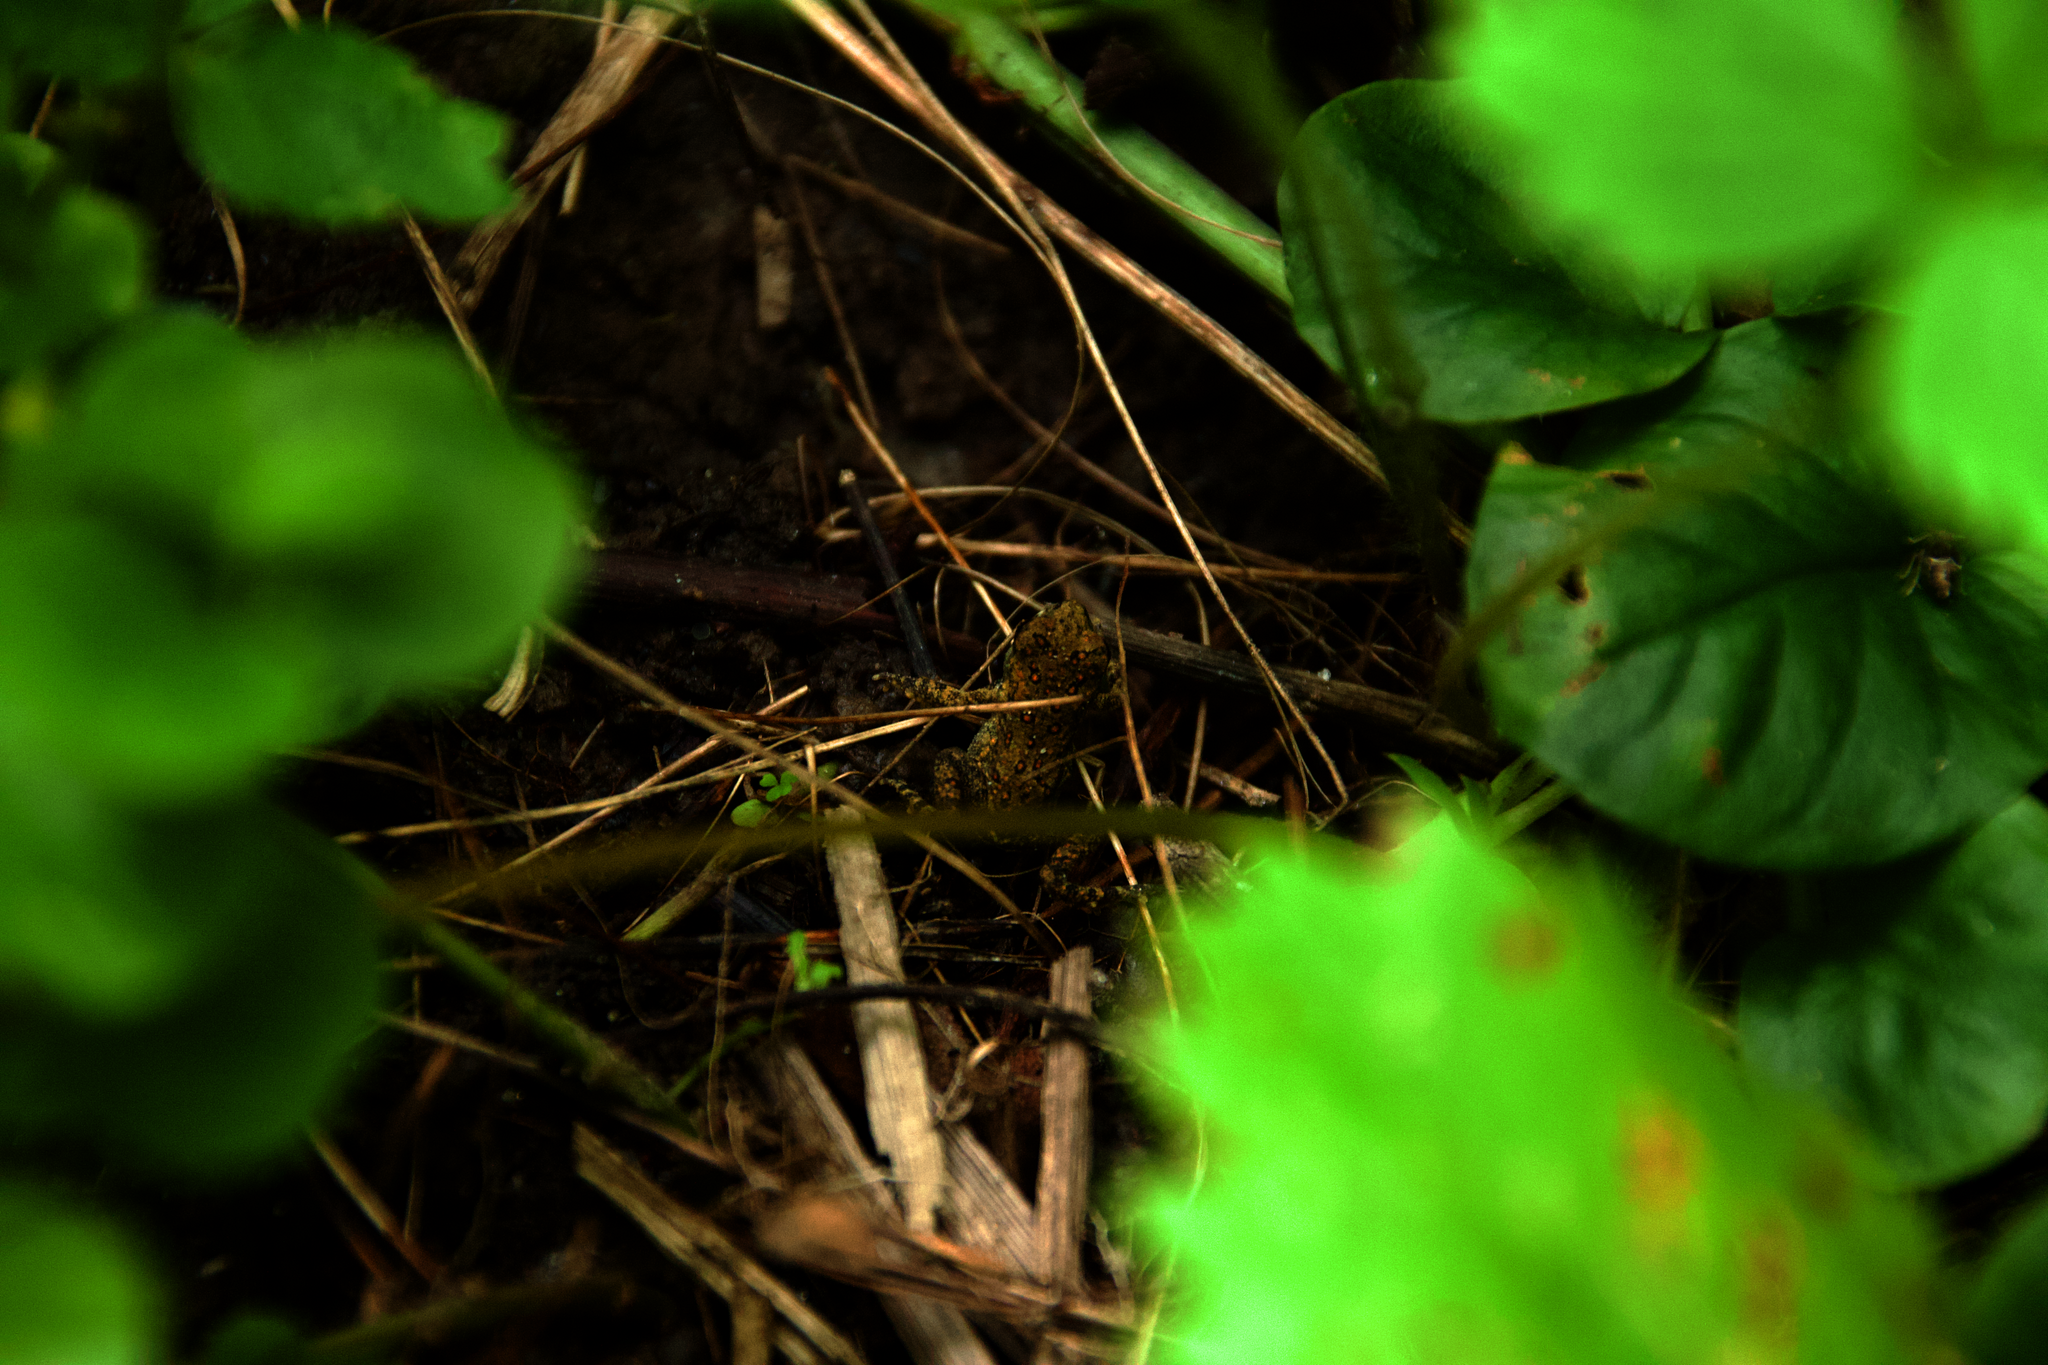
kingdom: Animalia
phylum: Chordata
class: Amphibia
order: Anura
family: Bufonidae
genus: Anaxyrus
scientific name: Anaxyrus americanus
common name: American toad
